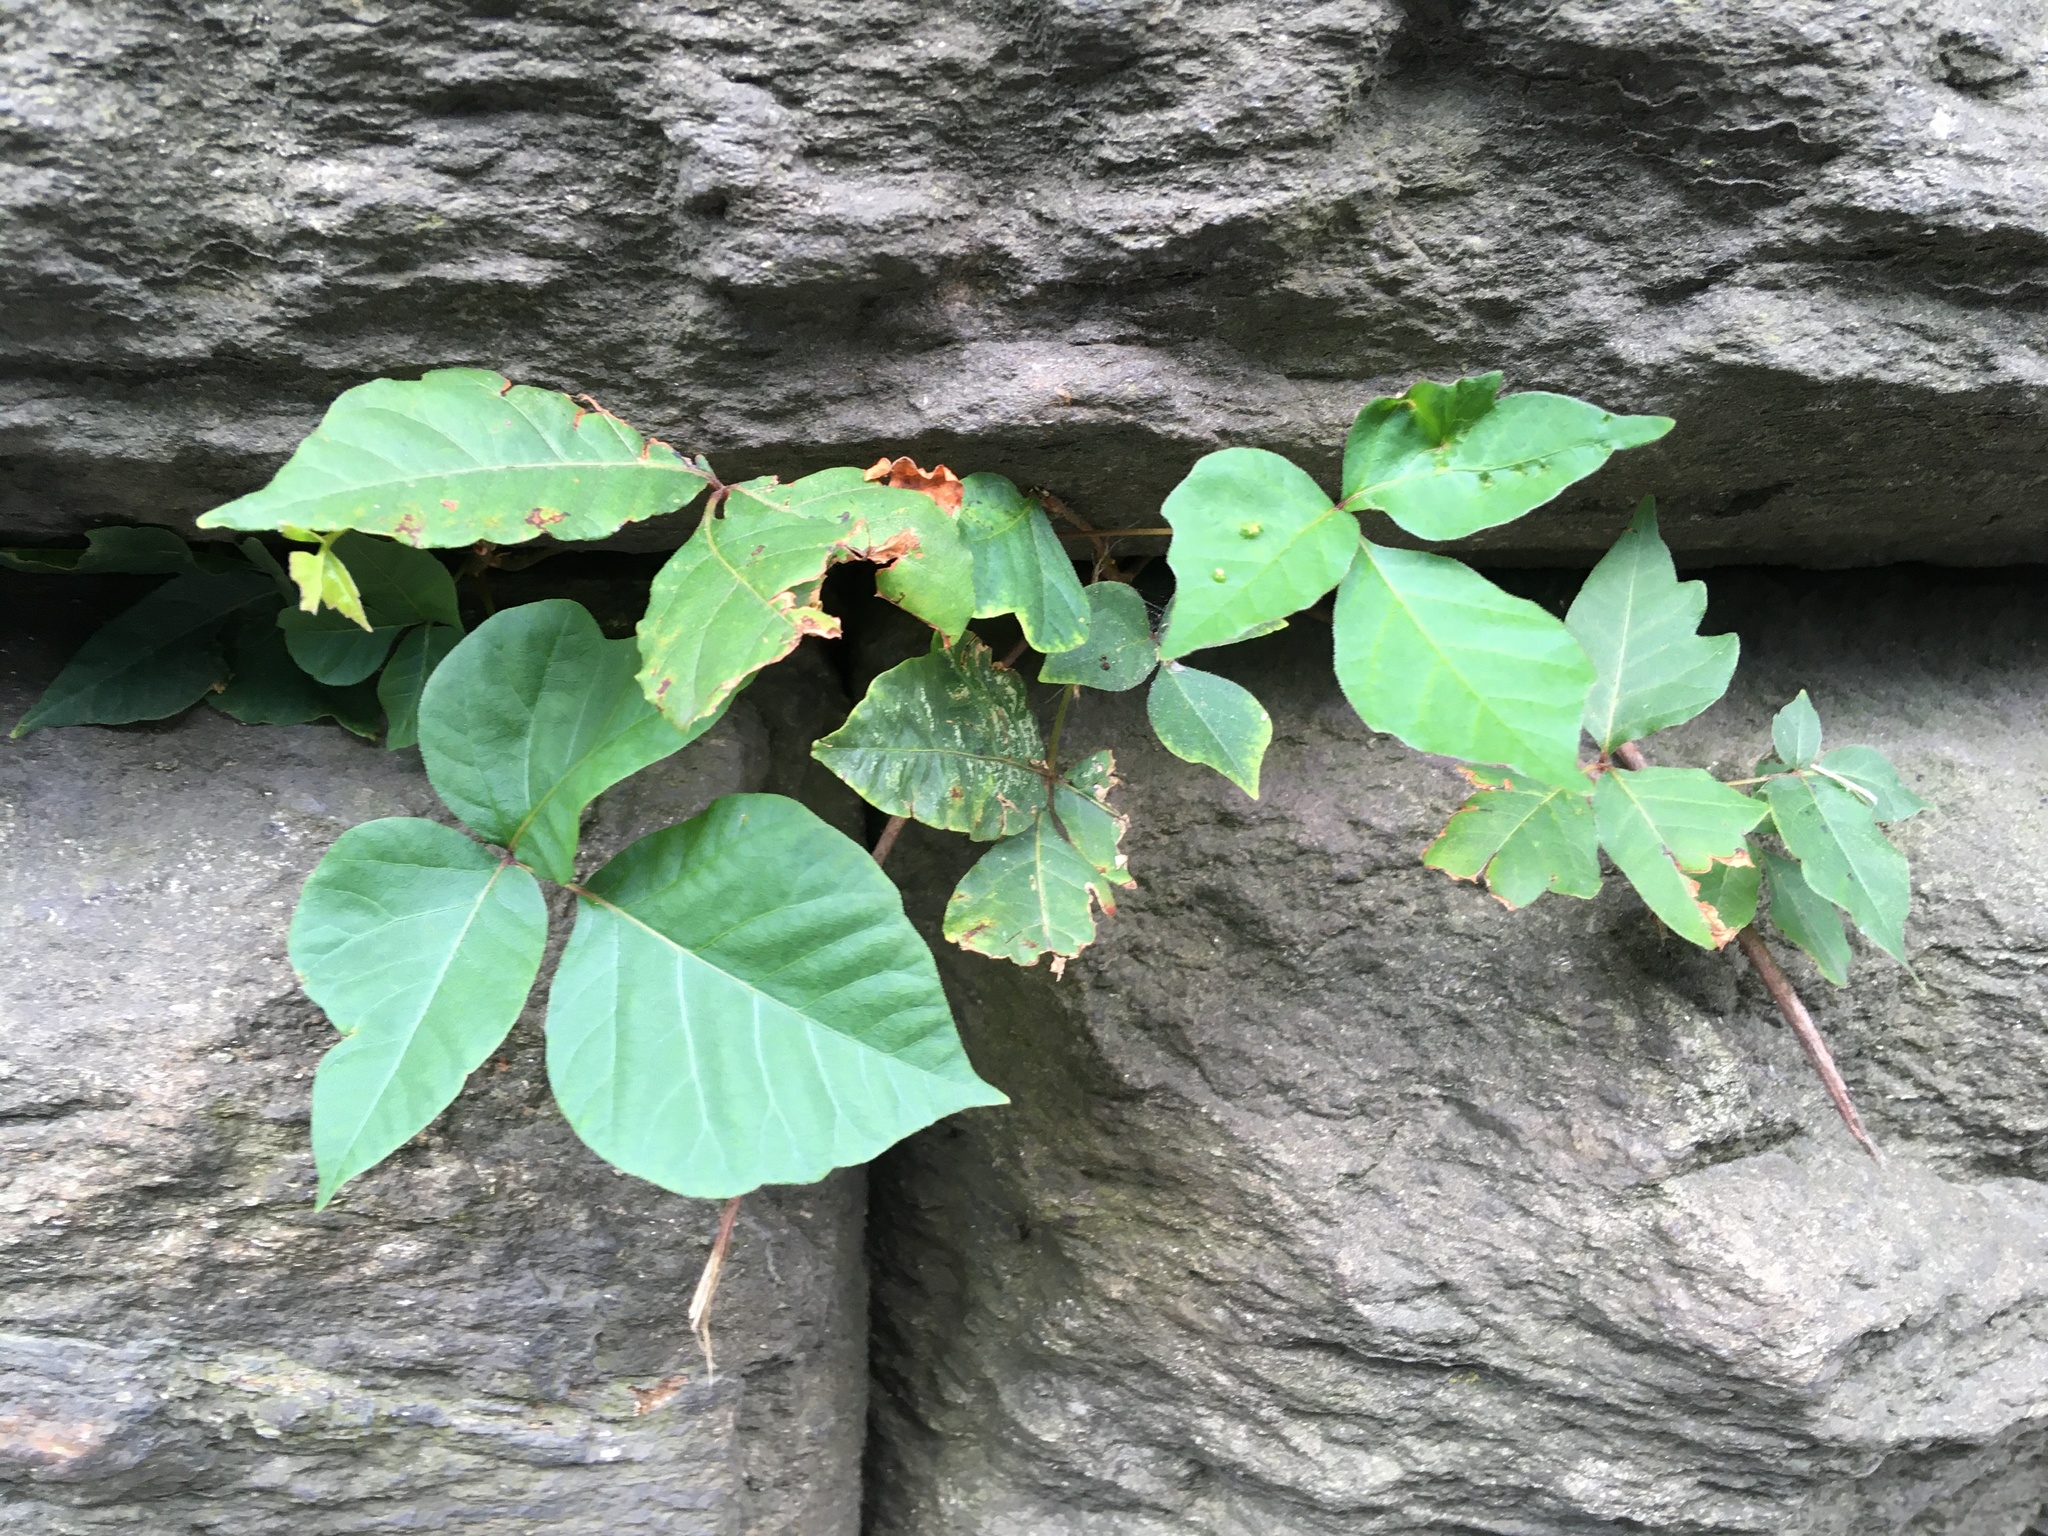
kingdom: Plantae
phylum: Tracheophyta
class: Magnoliopsida
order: Sapindales
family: Anacardiaceae
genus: Toxicodendron
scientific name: Toxicodendron radicans
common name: Poison ivy
